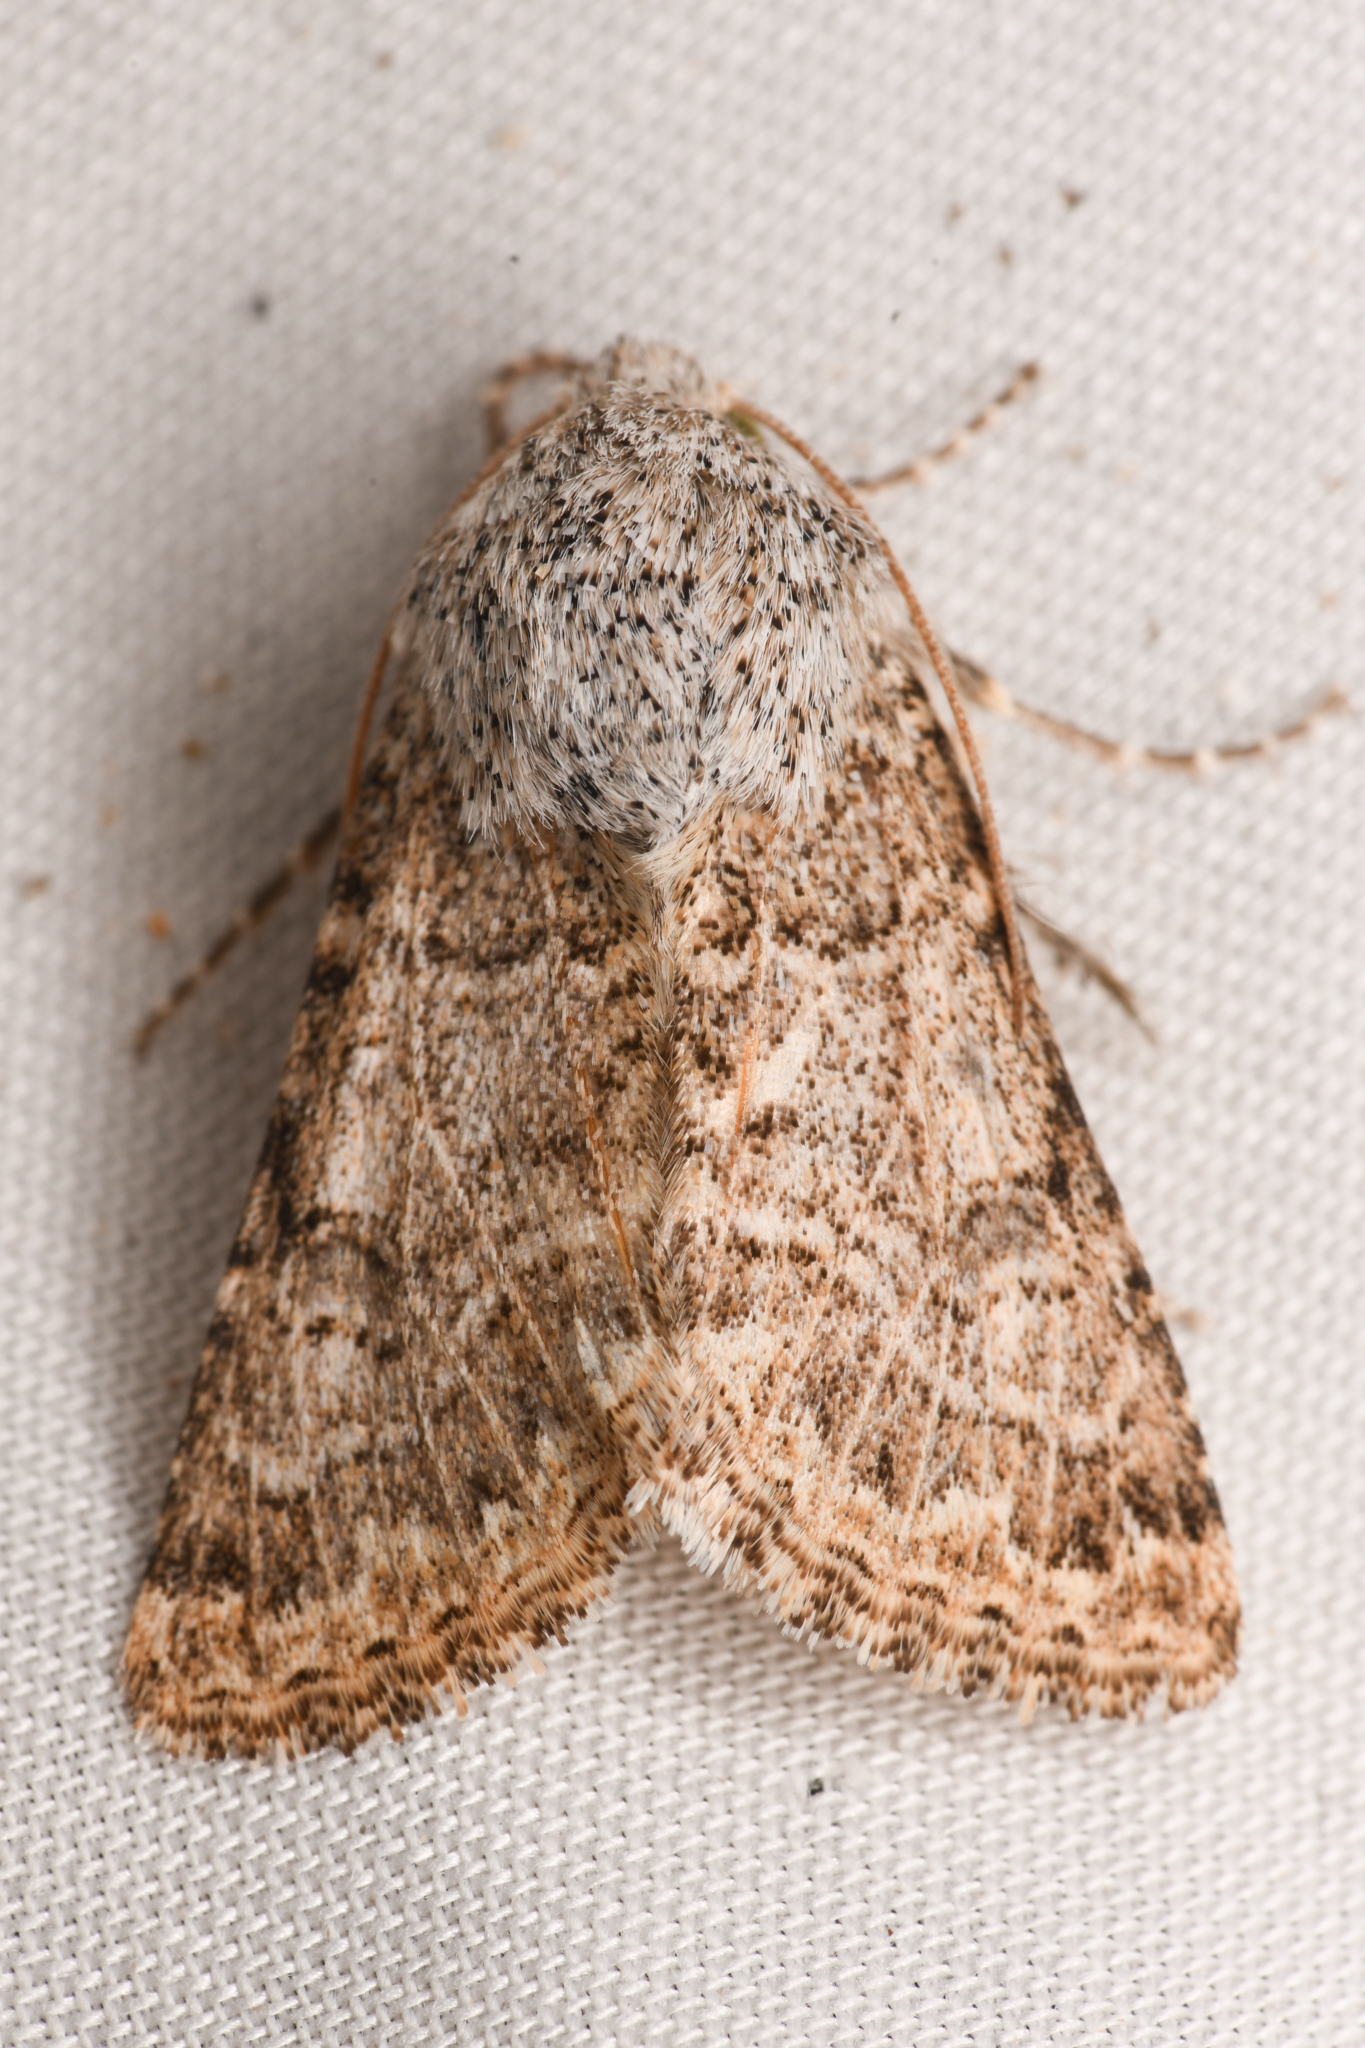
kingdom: Animalia
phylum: Arthropoda
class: Insecta
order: Lepidoptera
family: Noctuidae
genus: Schinia
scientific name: Schinia deserticola
